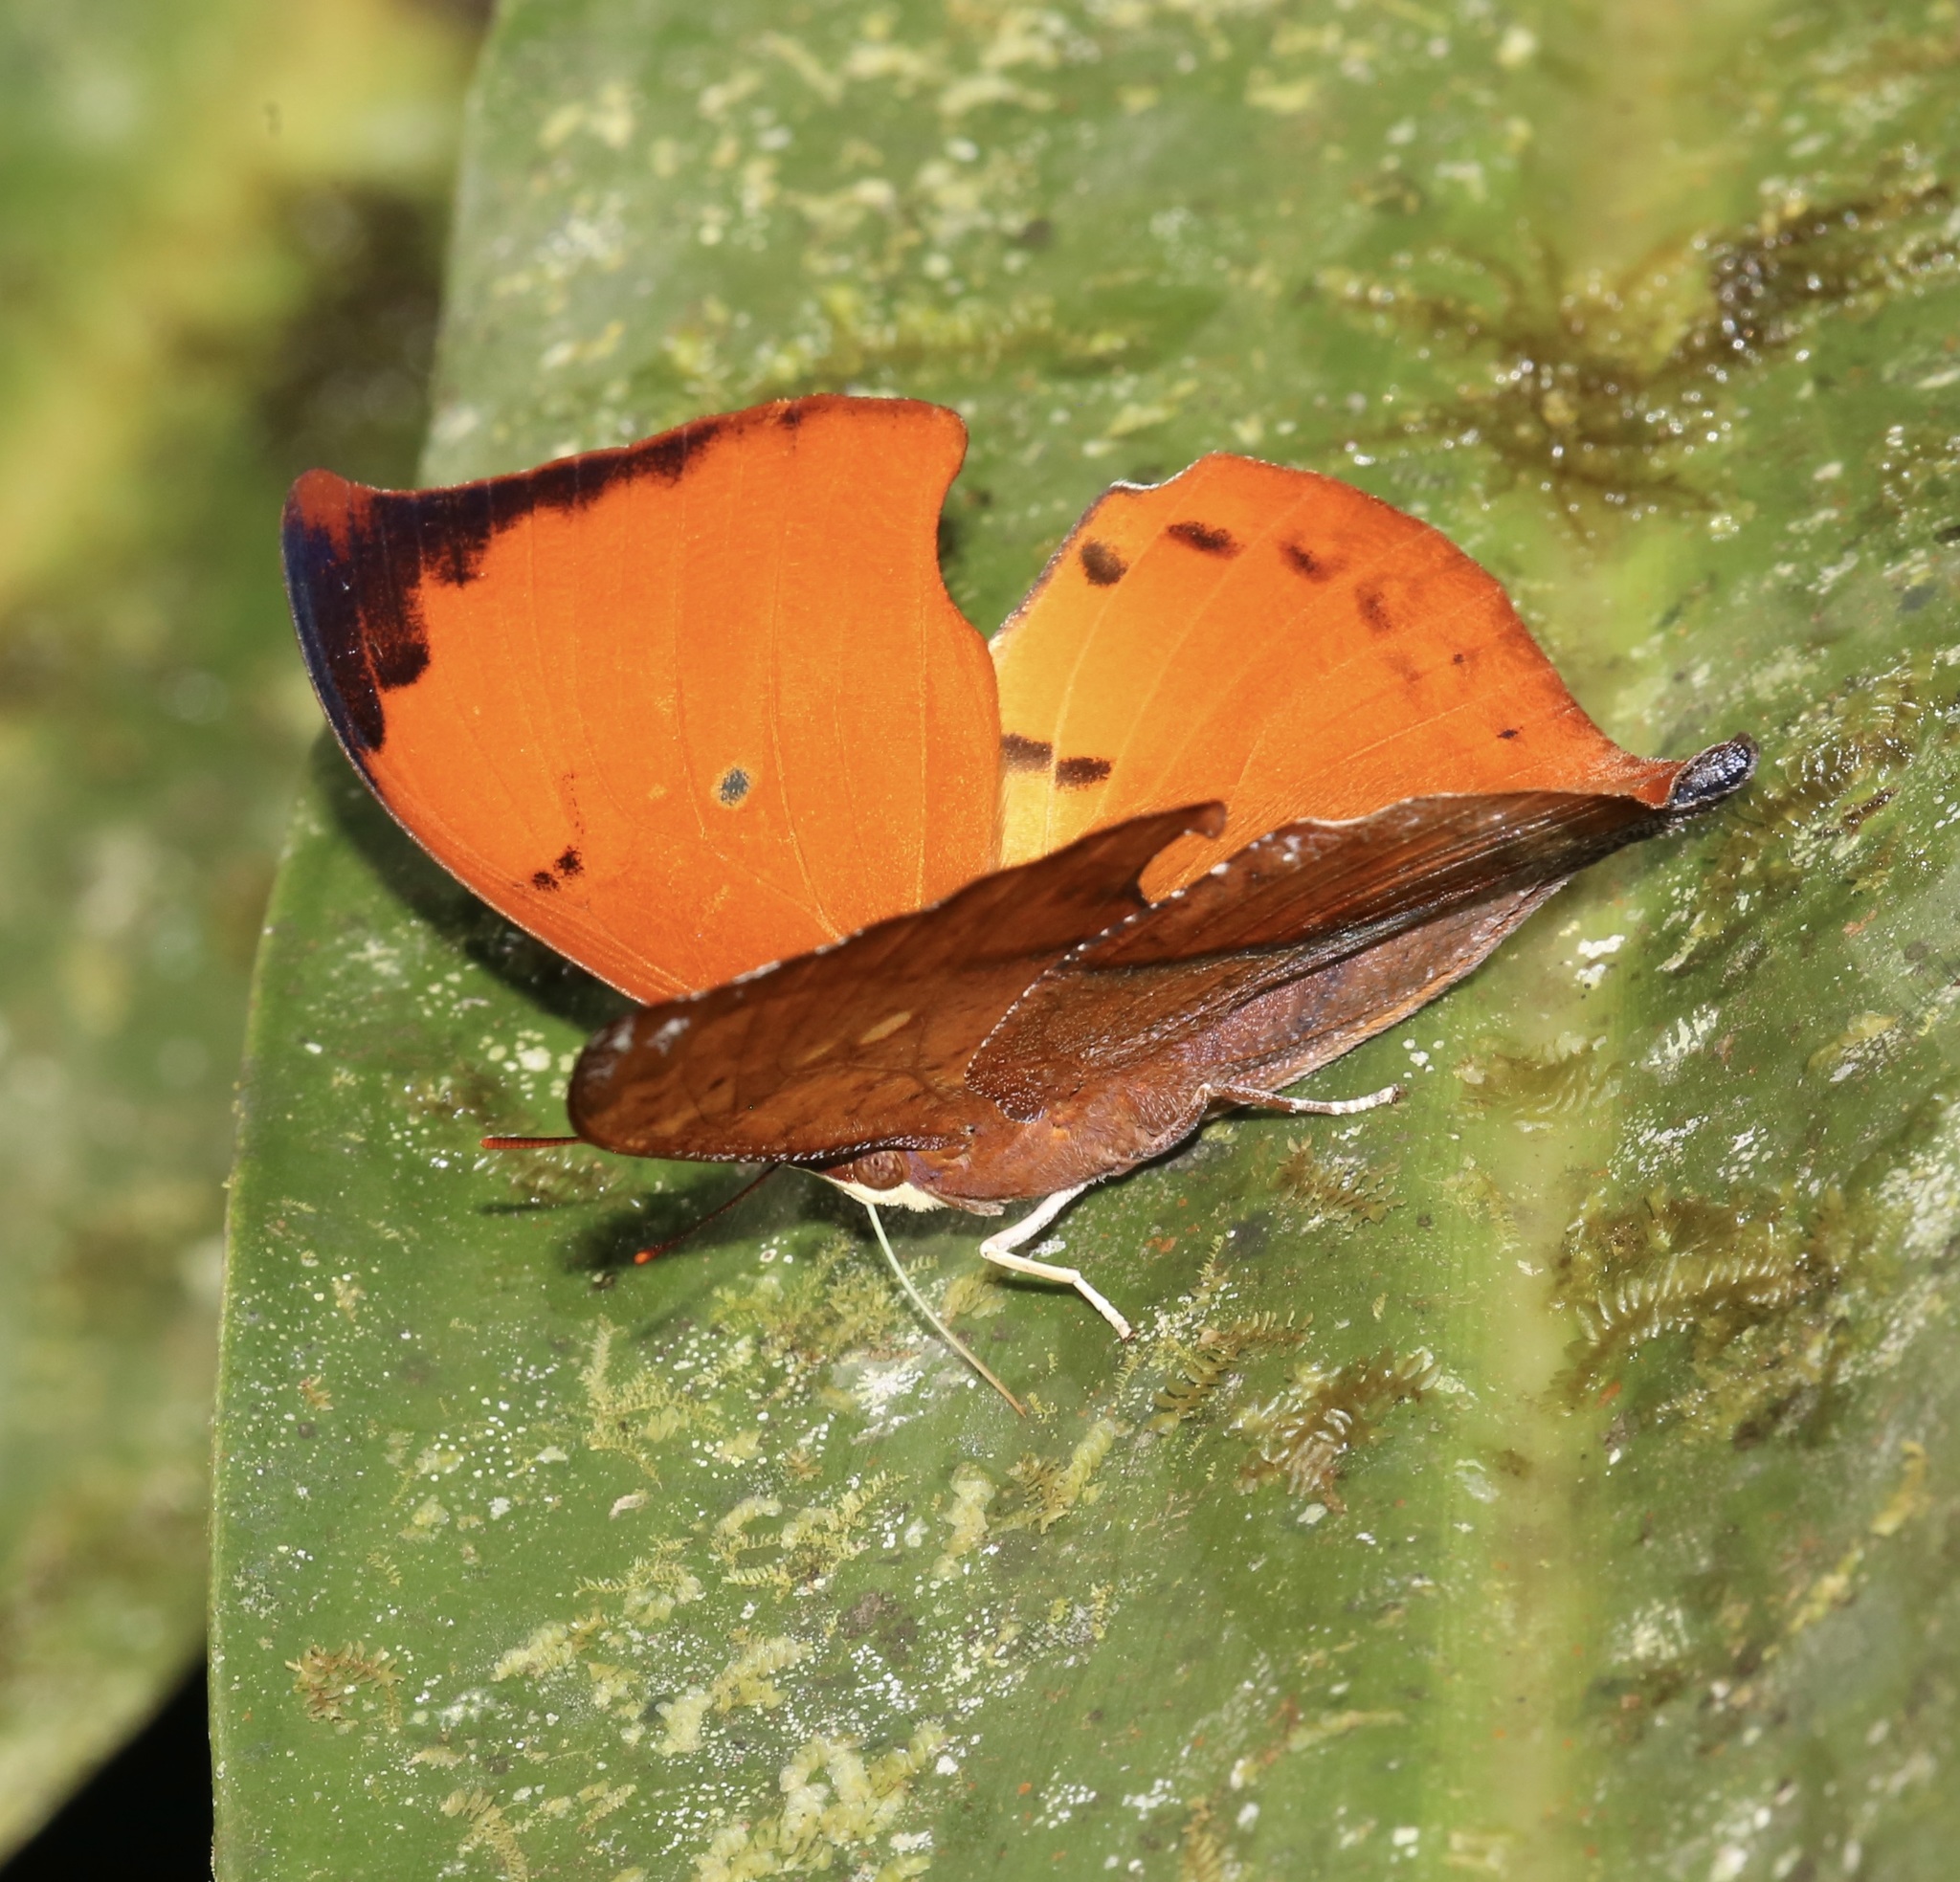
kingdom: Animalia
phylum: Arthropoda
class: Insecta
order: Lepidoptera
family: Nymphalidae
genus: Zaretis
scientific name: Zaretis itys
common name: Skeletonized leafwing
